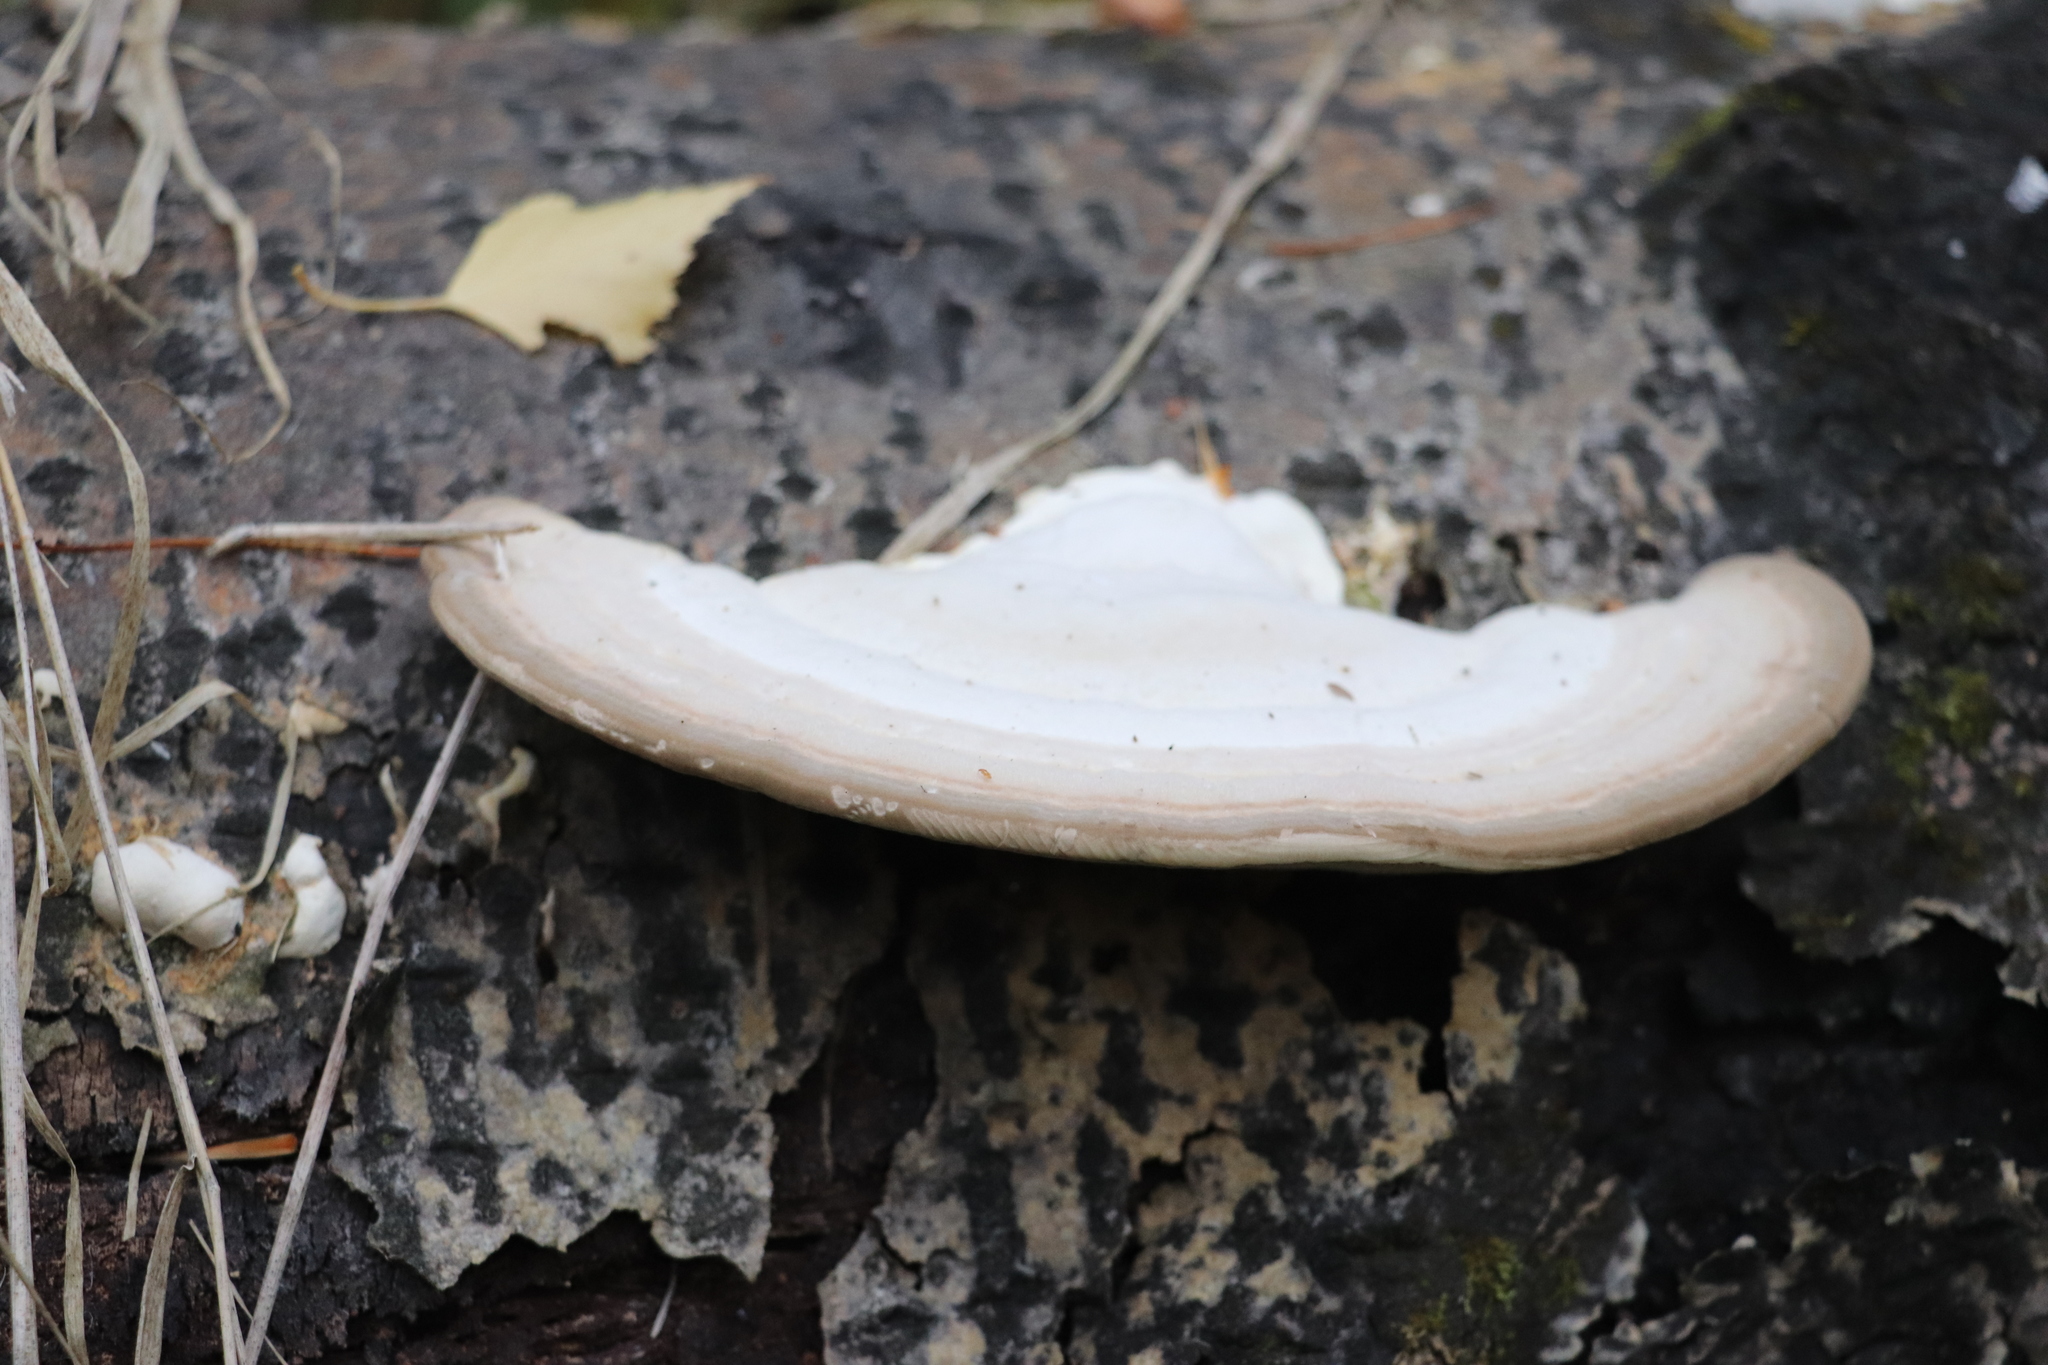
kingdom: Fungi
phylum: Basidiomycota
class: Agaricomycetes
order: Polyporales
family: Polyporaceae
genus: Trametes
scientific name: Trametes gibbosa
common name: Lumpy bracket
